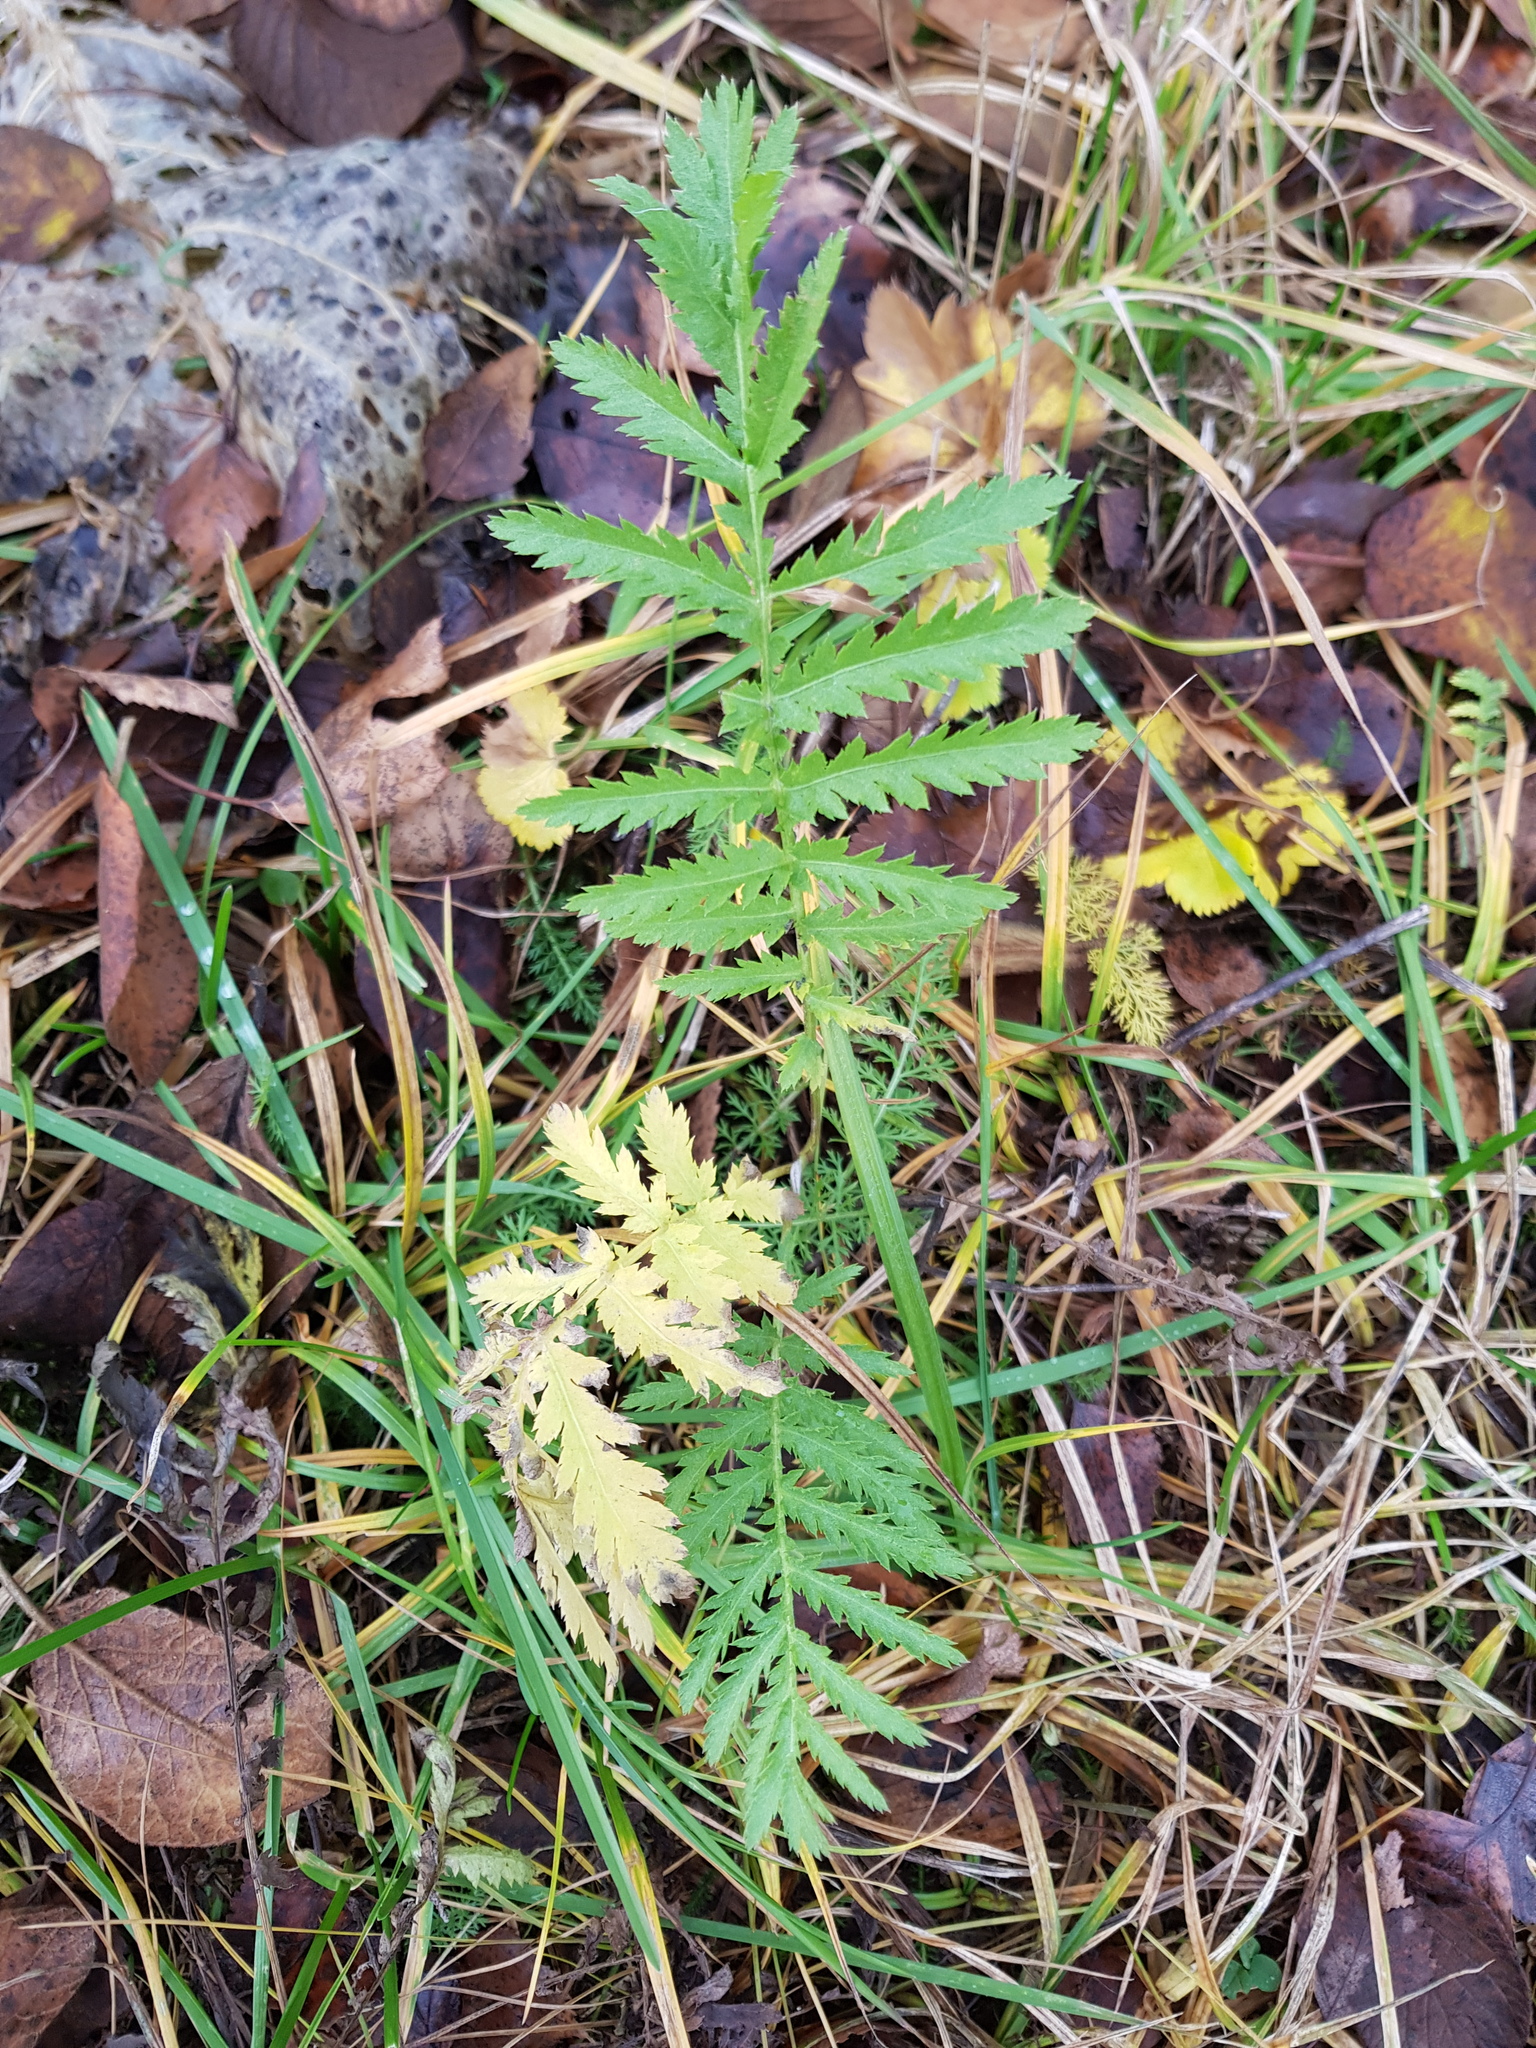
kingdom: Plantae
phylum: Tracheophyta
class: Magnoliopsida
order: Asterales
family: Asteraceae
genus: Tanacetum
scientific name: Tanacetum vulgare
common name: Common tansy
